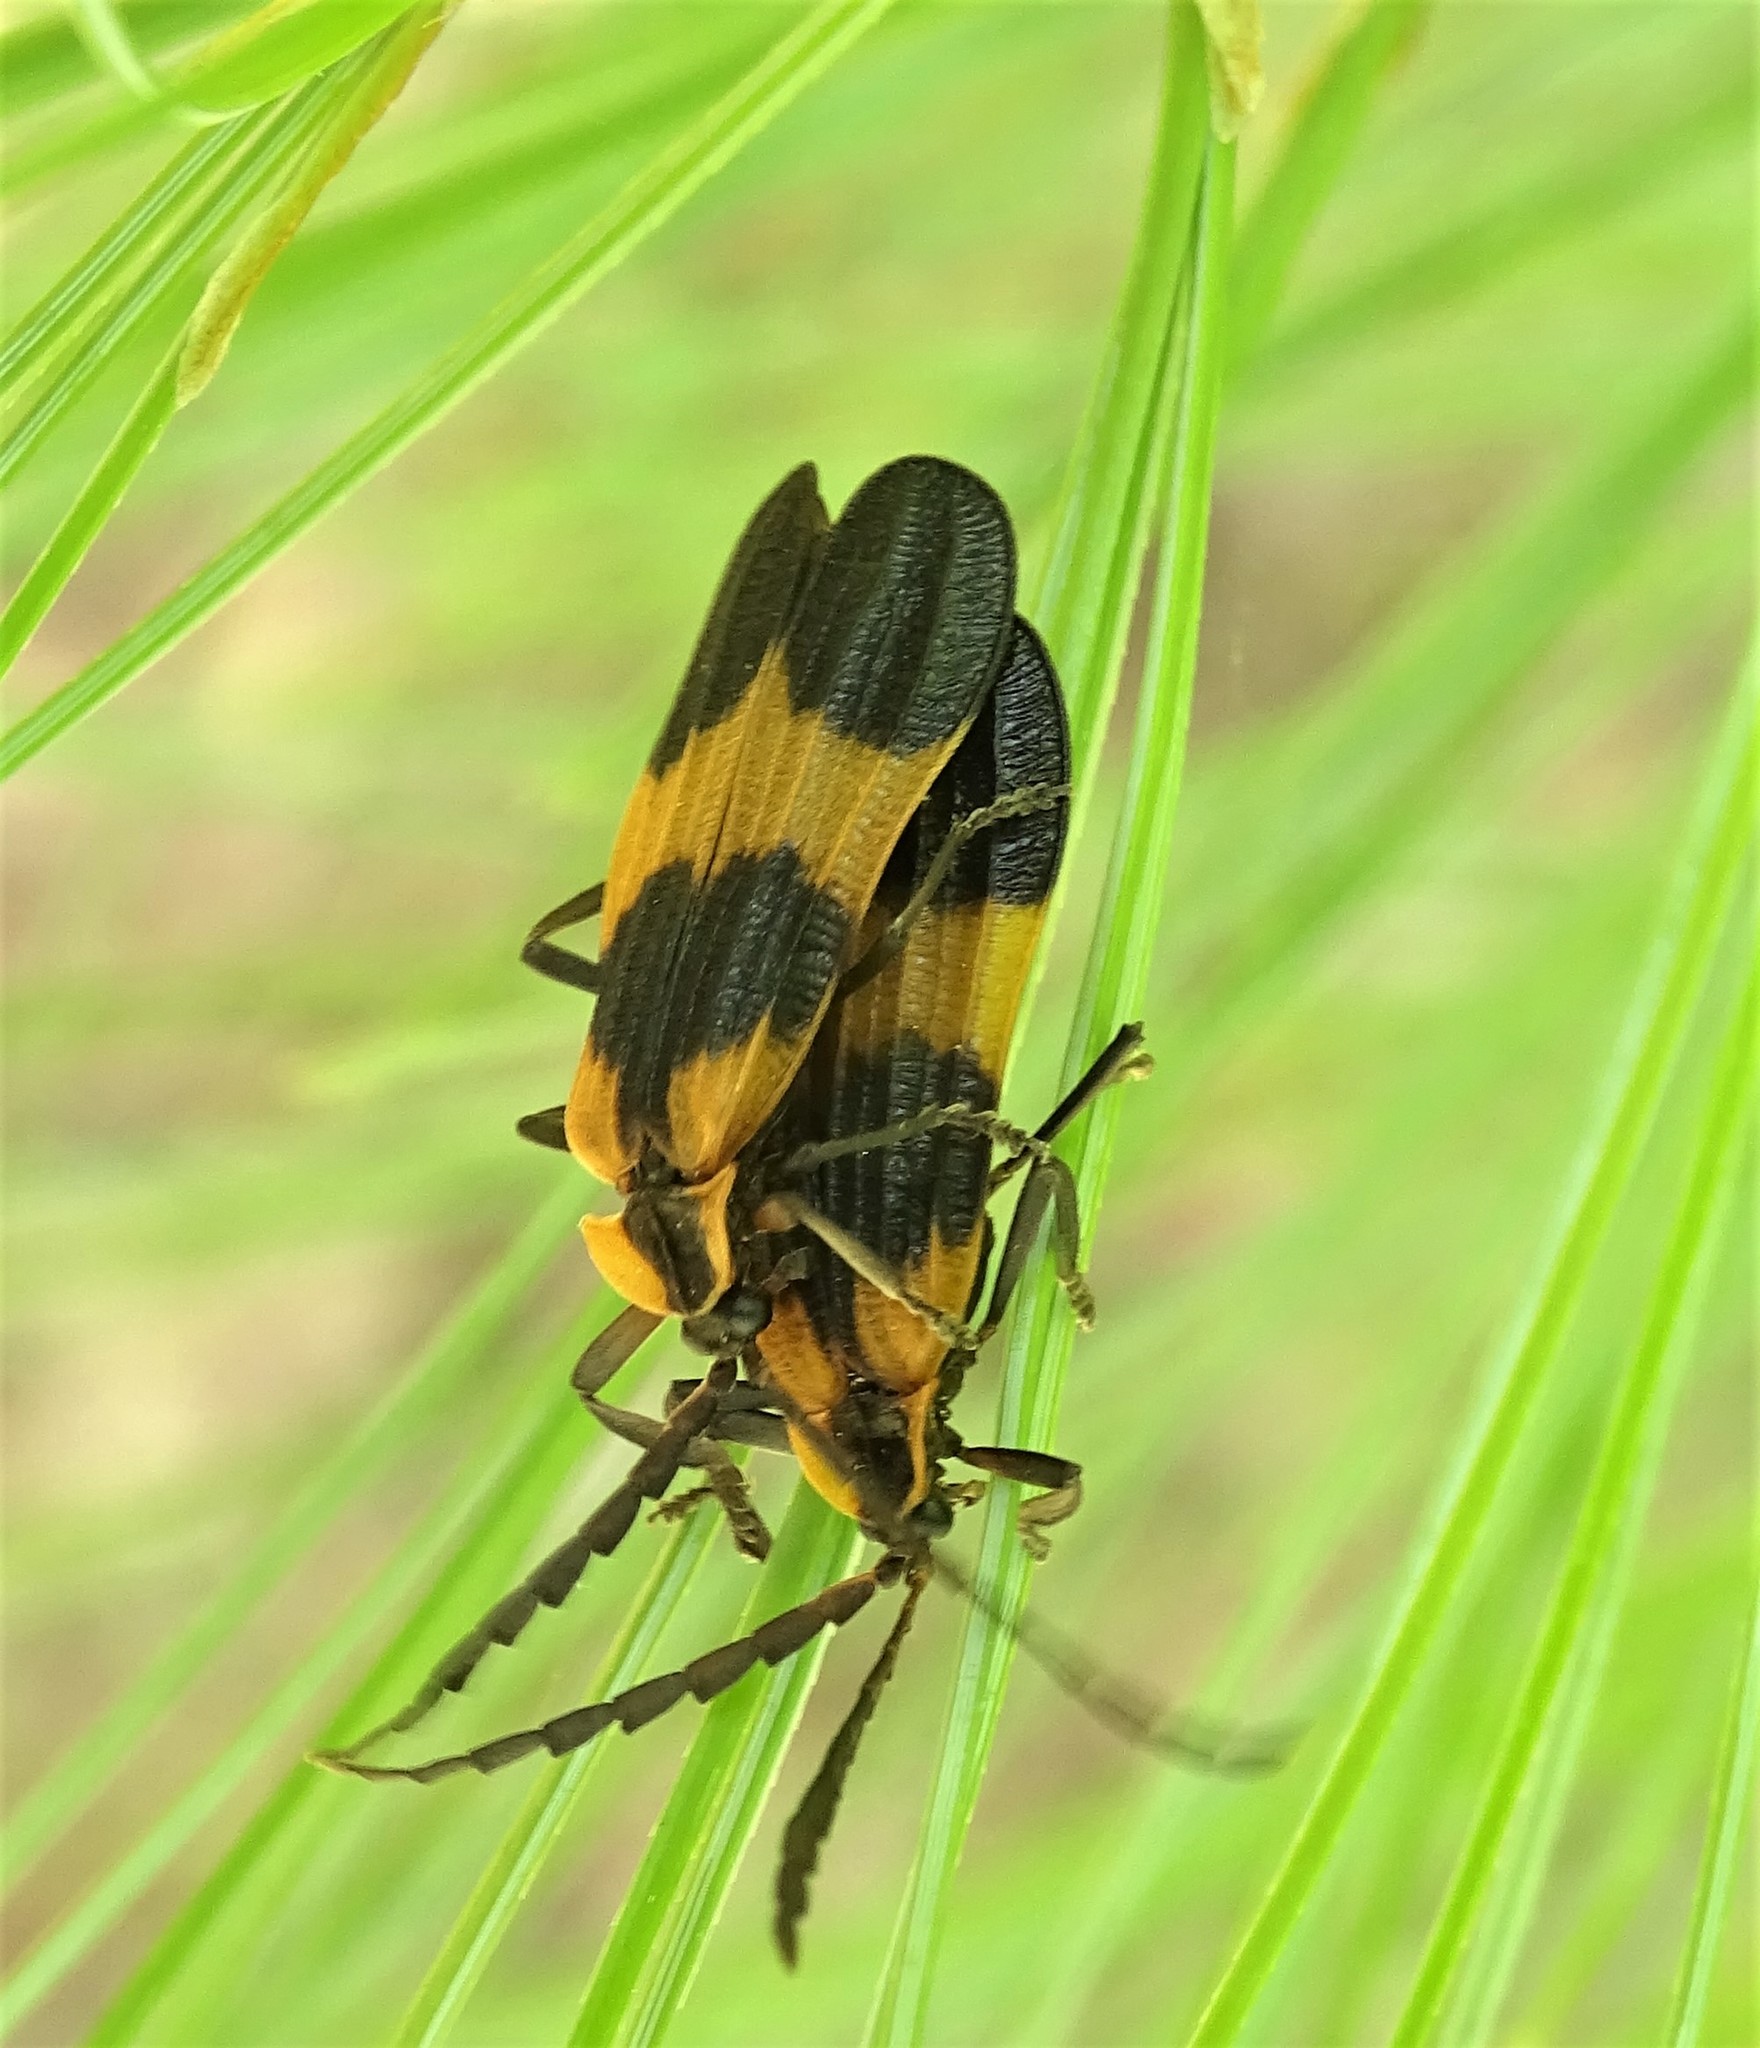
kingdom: Animalia
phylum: Arthropoda
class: Insecta
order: Coleoptera
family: Lycidae
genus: Calopteron
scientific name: Calopteron reticulatum
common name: Banded net-winged beetle
